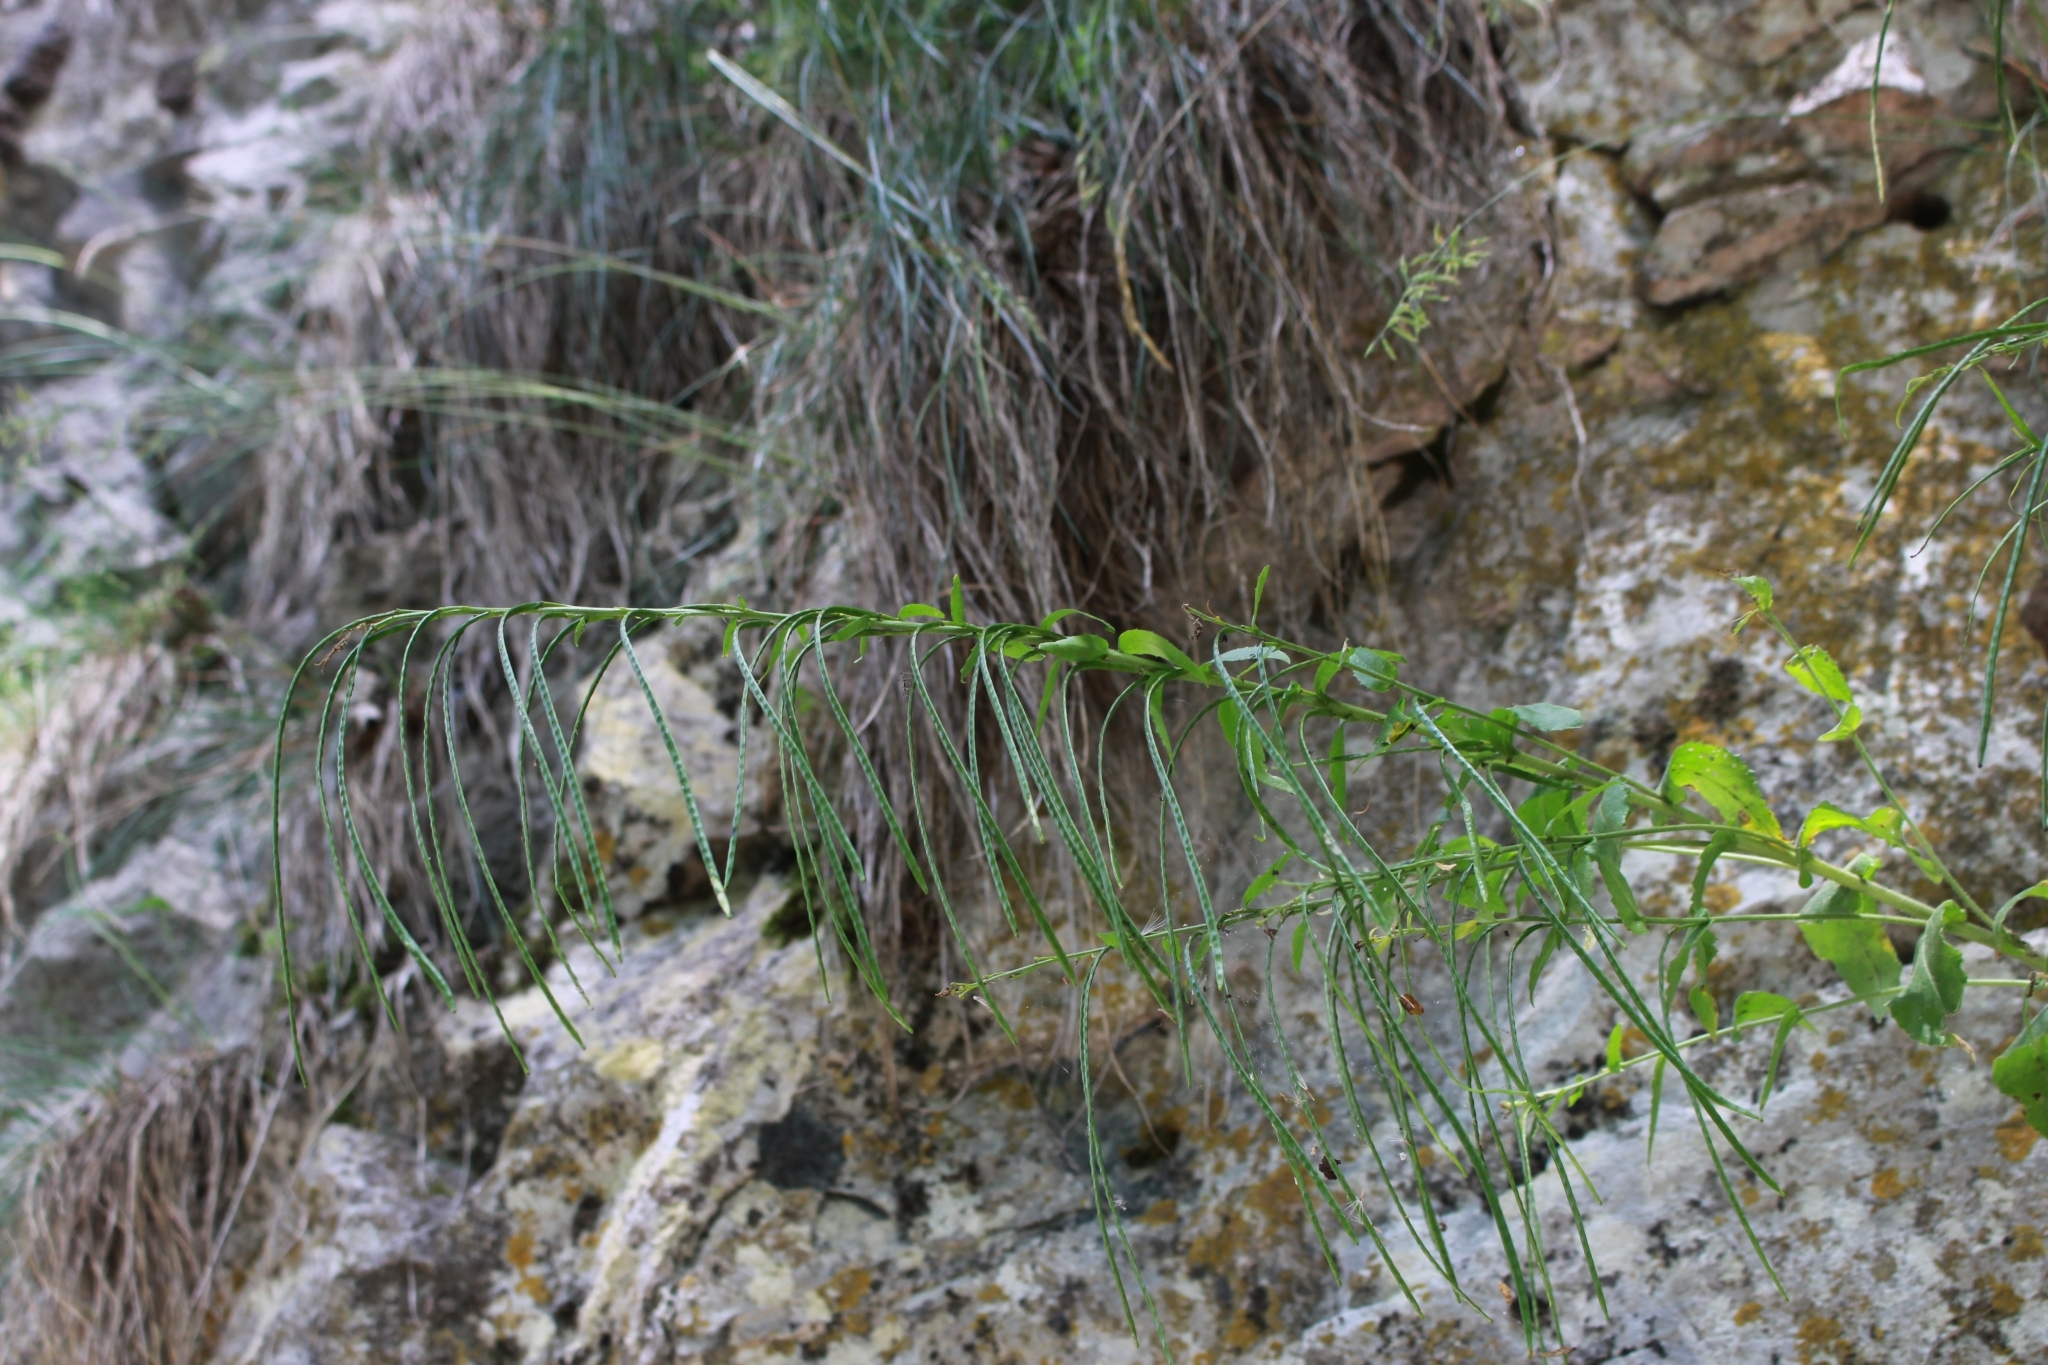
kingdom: Plantae
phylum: Tracheophyta
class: Magnoliopsida
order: Brassicales
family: Brassicaceae
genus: Pseudoturritis
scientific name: Pseudoturritis turrita
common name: Tower cress
